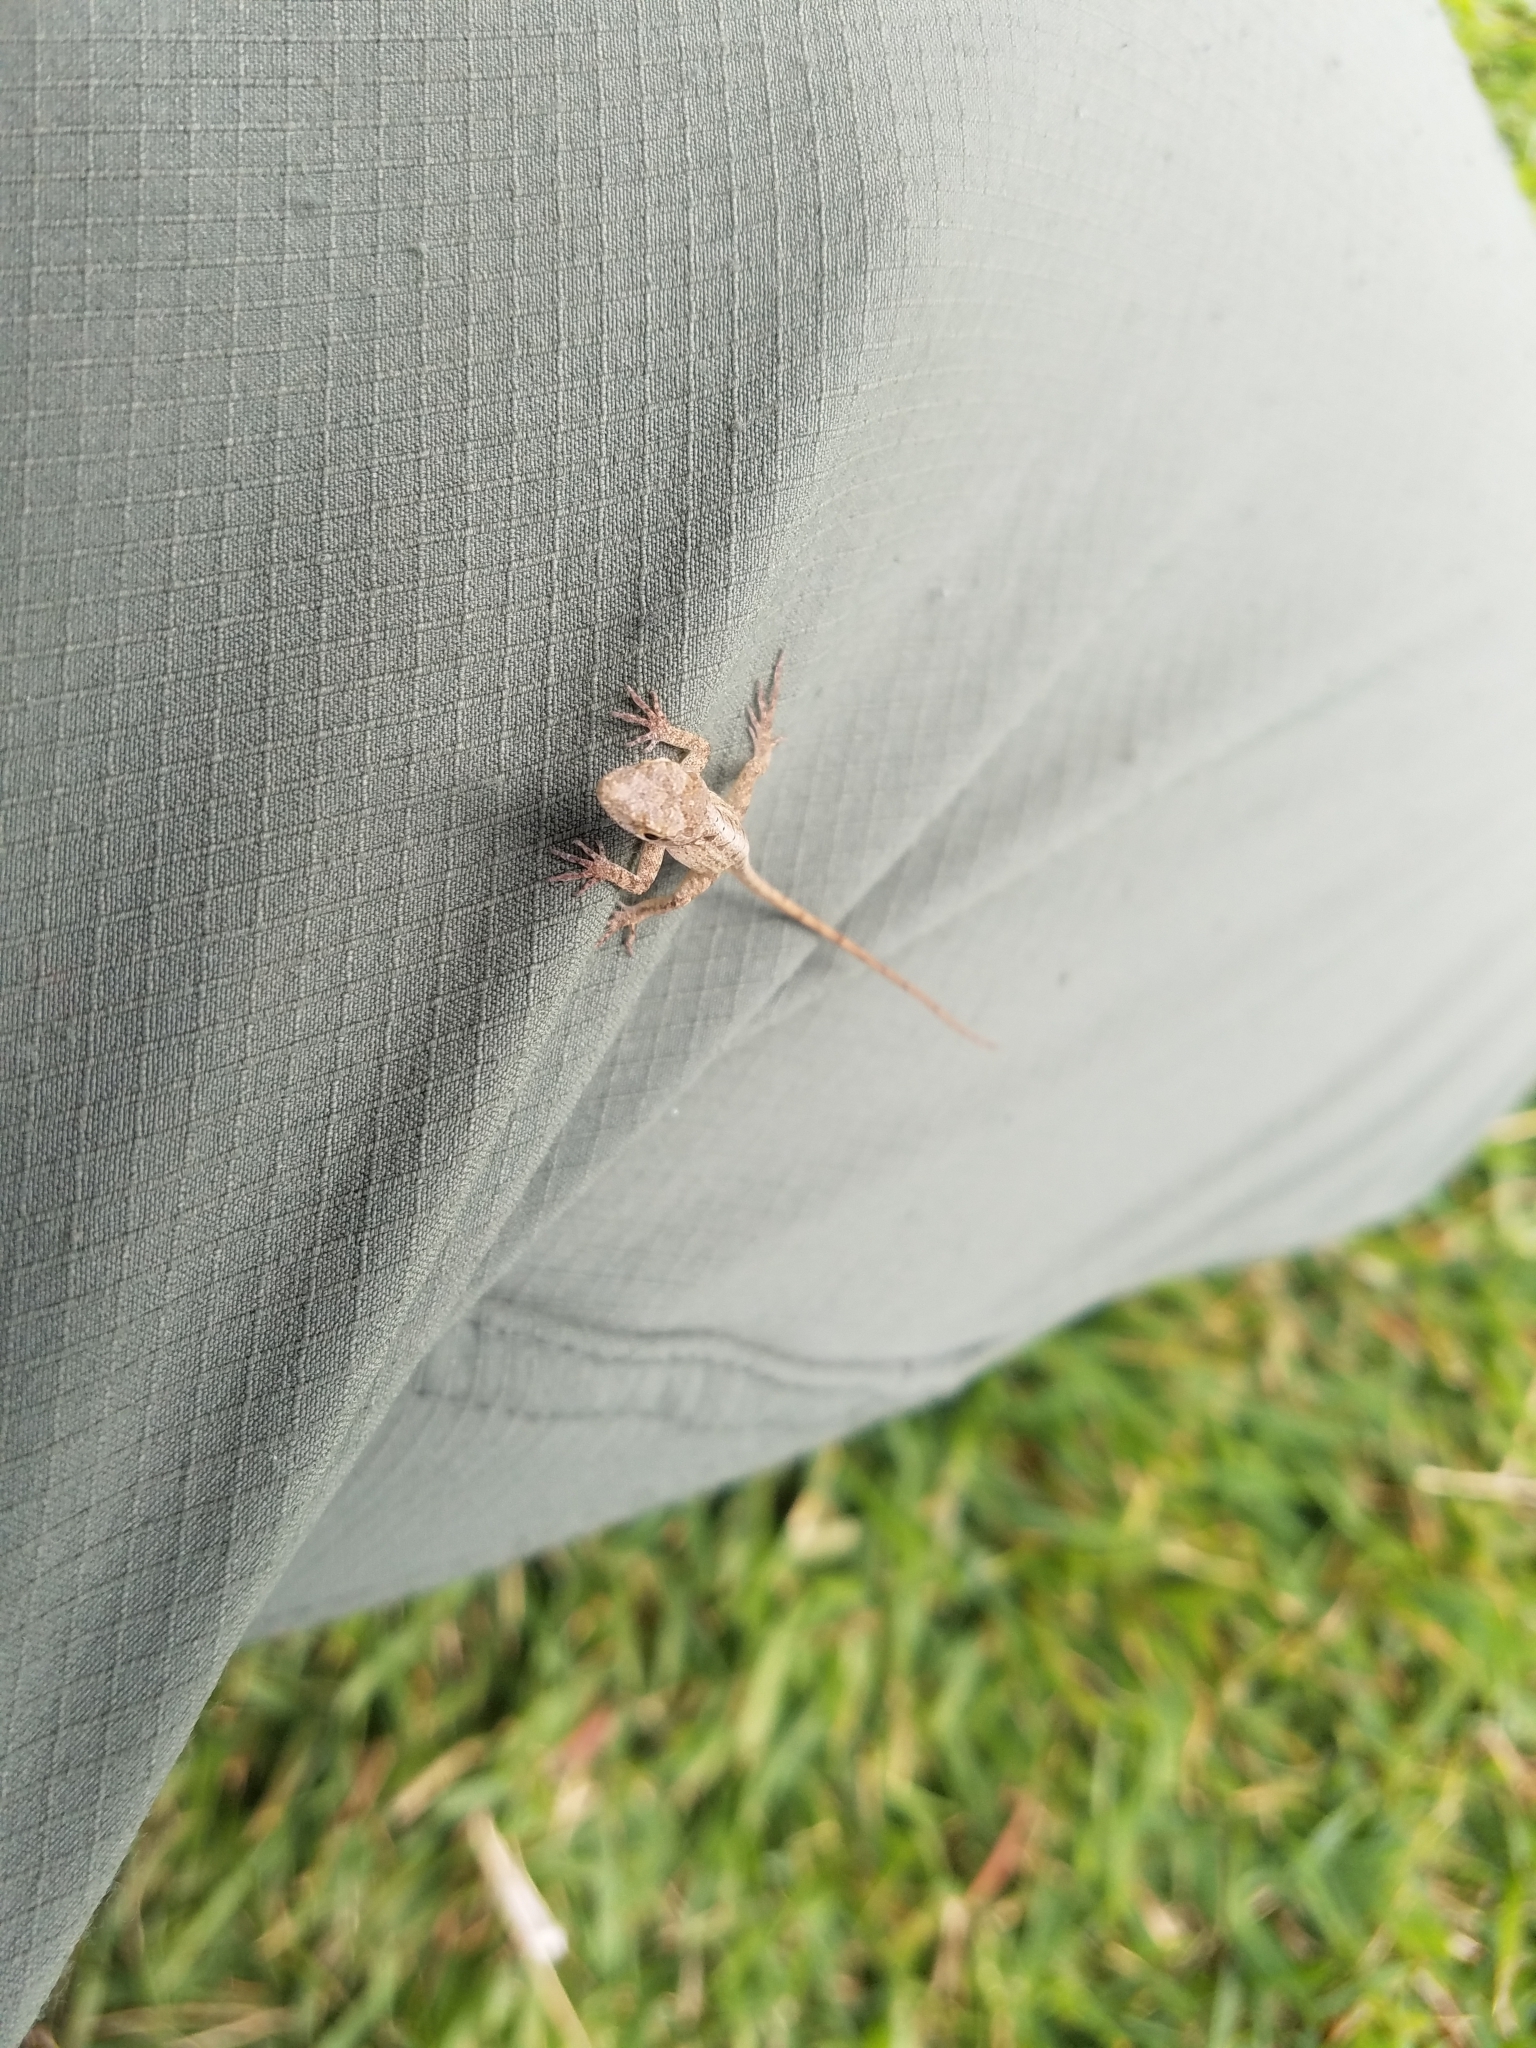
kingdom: Animalia
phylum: Chordata
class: Squamata
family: Dactyloidae
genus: Anolis
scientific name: Anolis sagrei
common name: Brown anole
